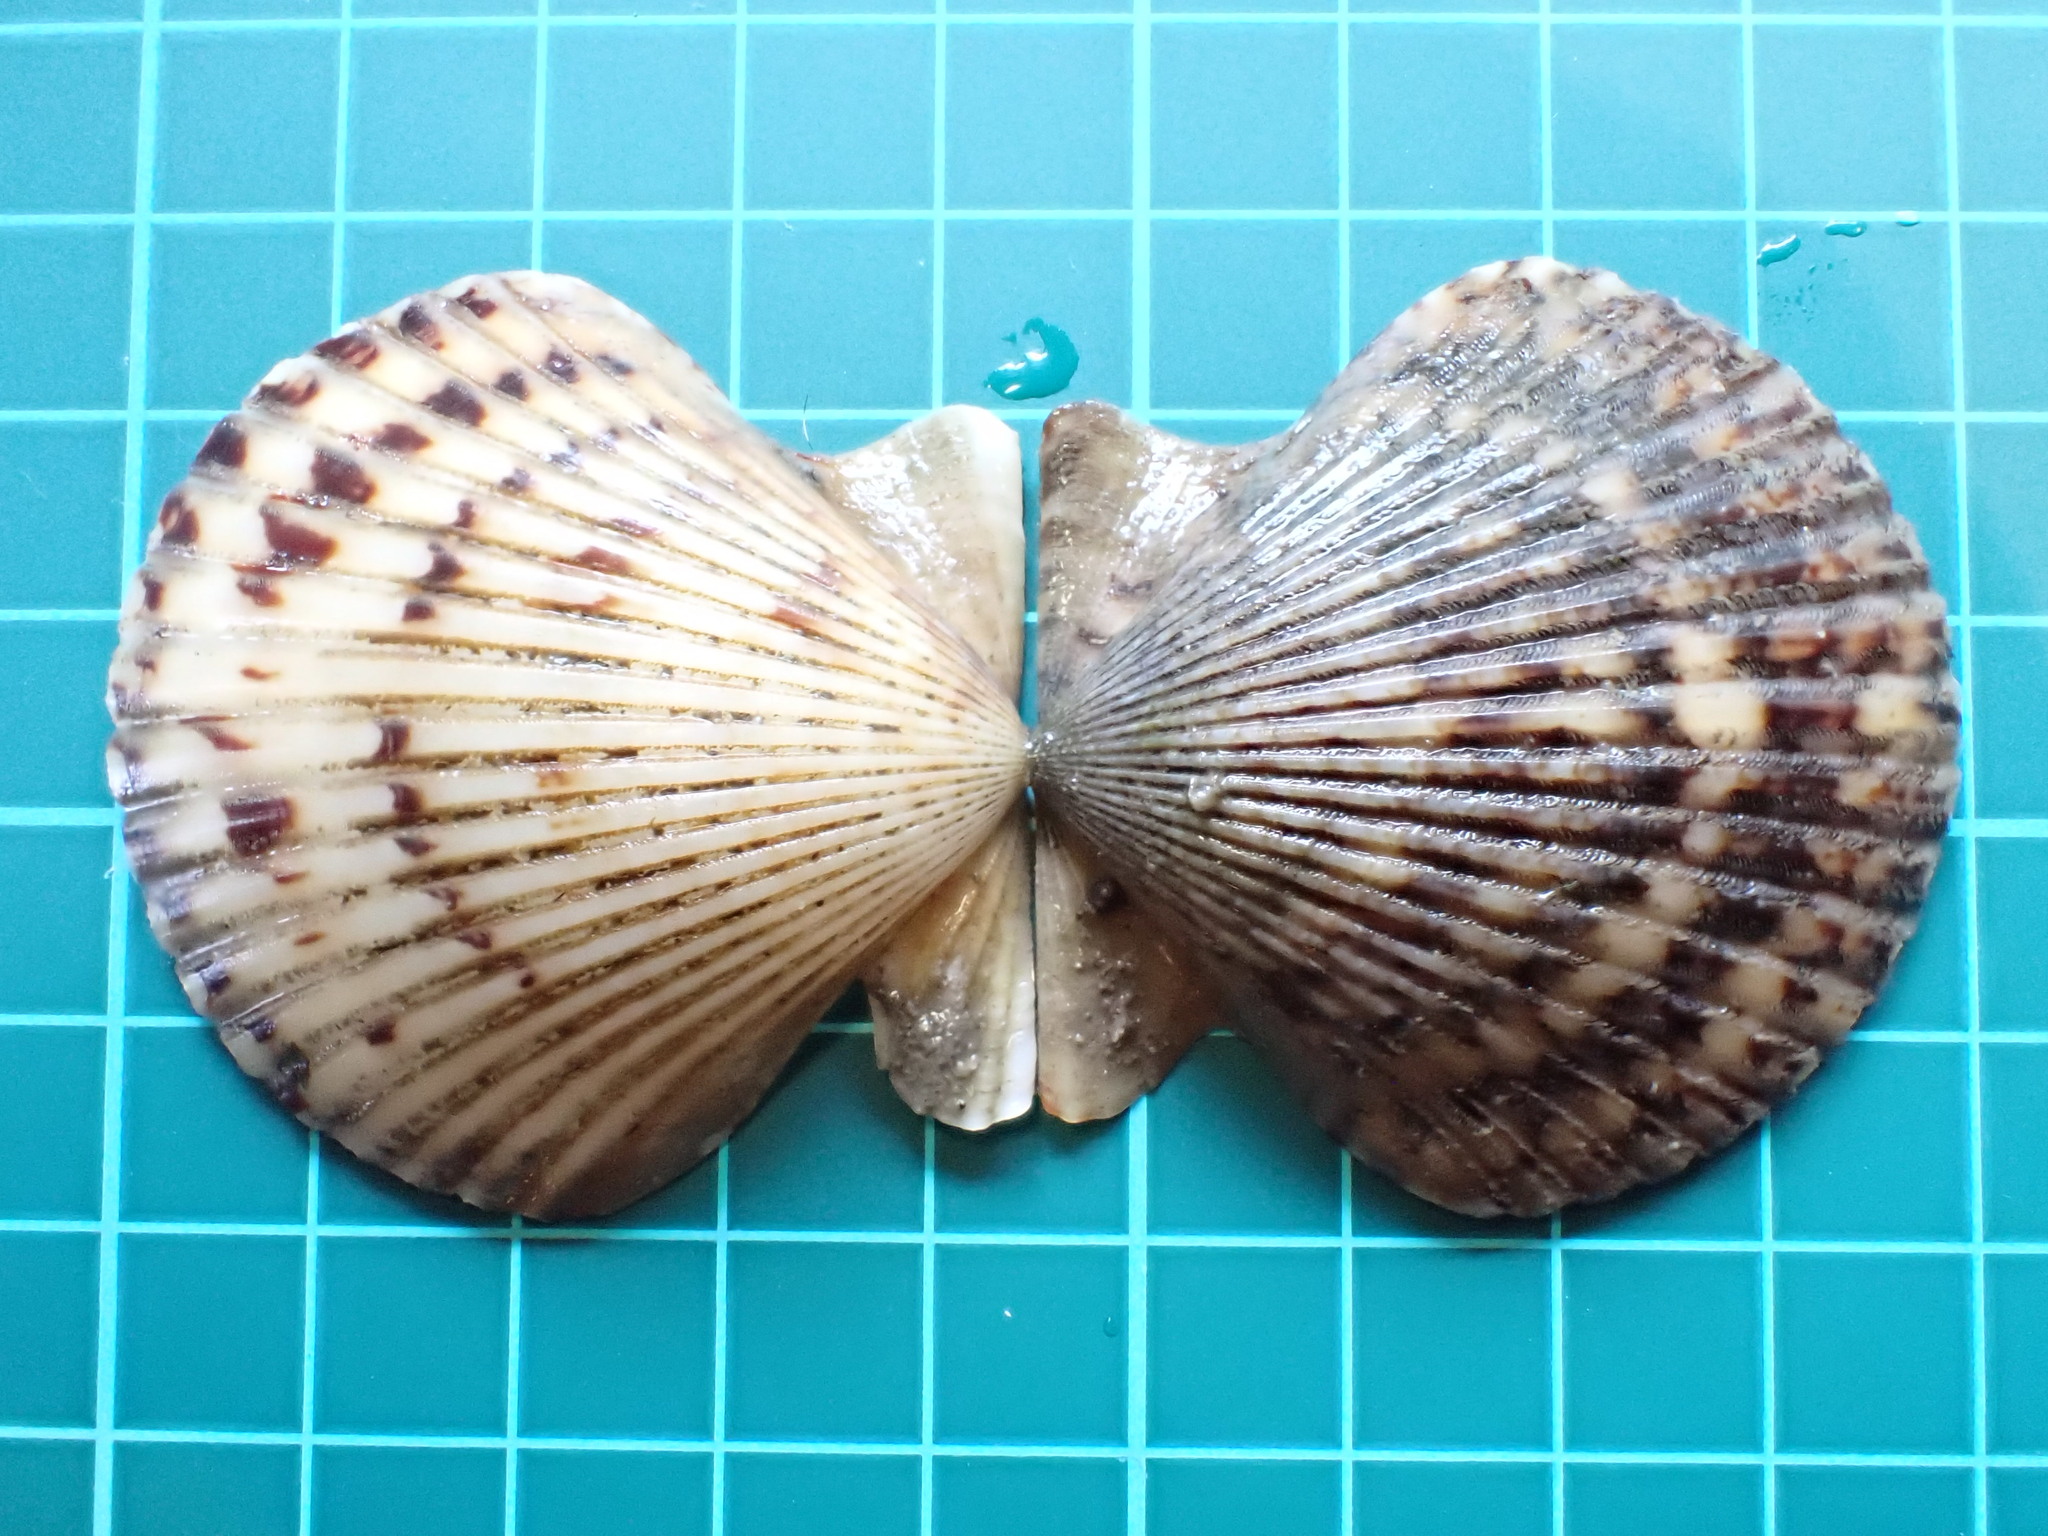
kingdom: Animalia
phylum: Mollusca
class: Bivalvia
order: Pectinida
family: Pectinidae
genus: Argopecten
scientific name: Argopecten ventricosus
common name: Catarina scallop
